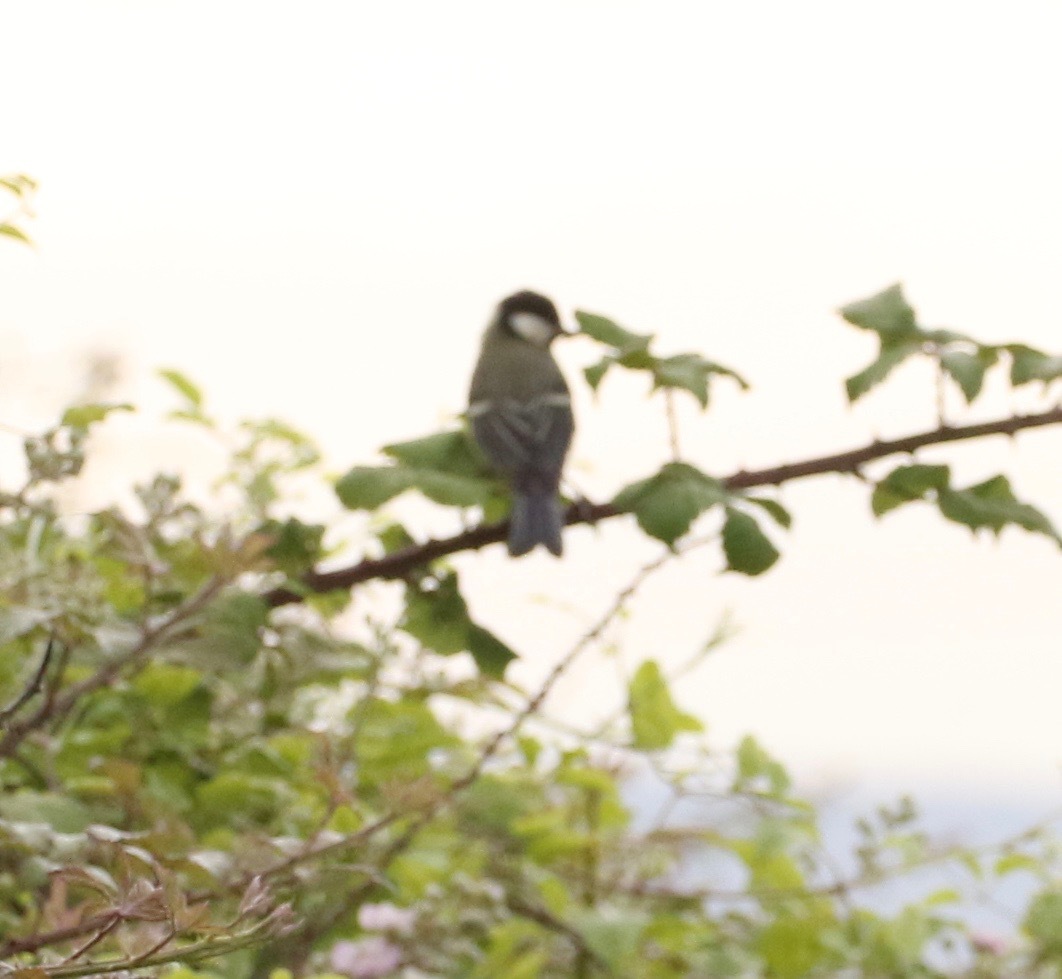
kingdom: Animalia
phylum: Chordata
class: Aves
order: Passeriformes
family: Paridae
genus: Parus
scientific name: Parus major
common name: Great tit
